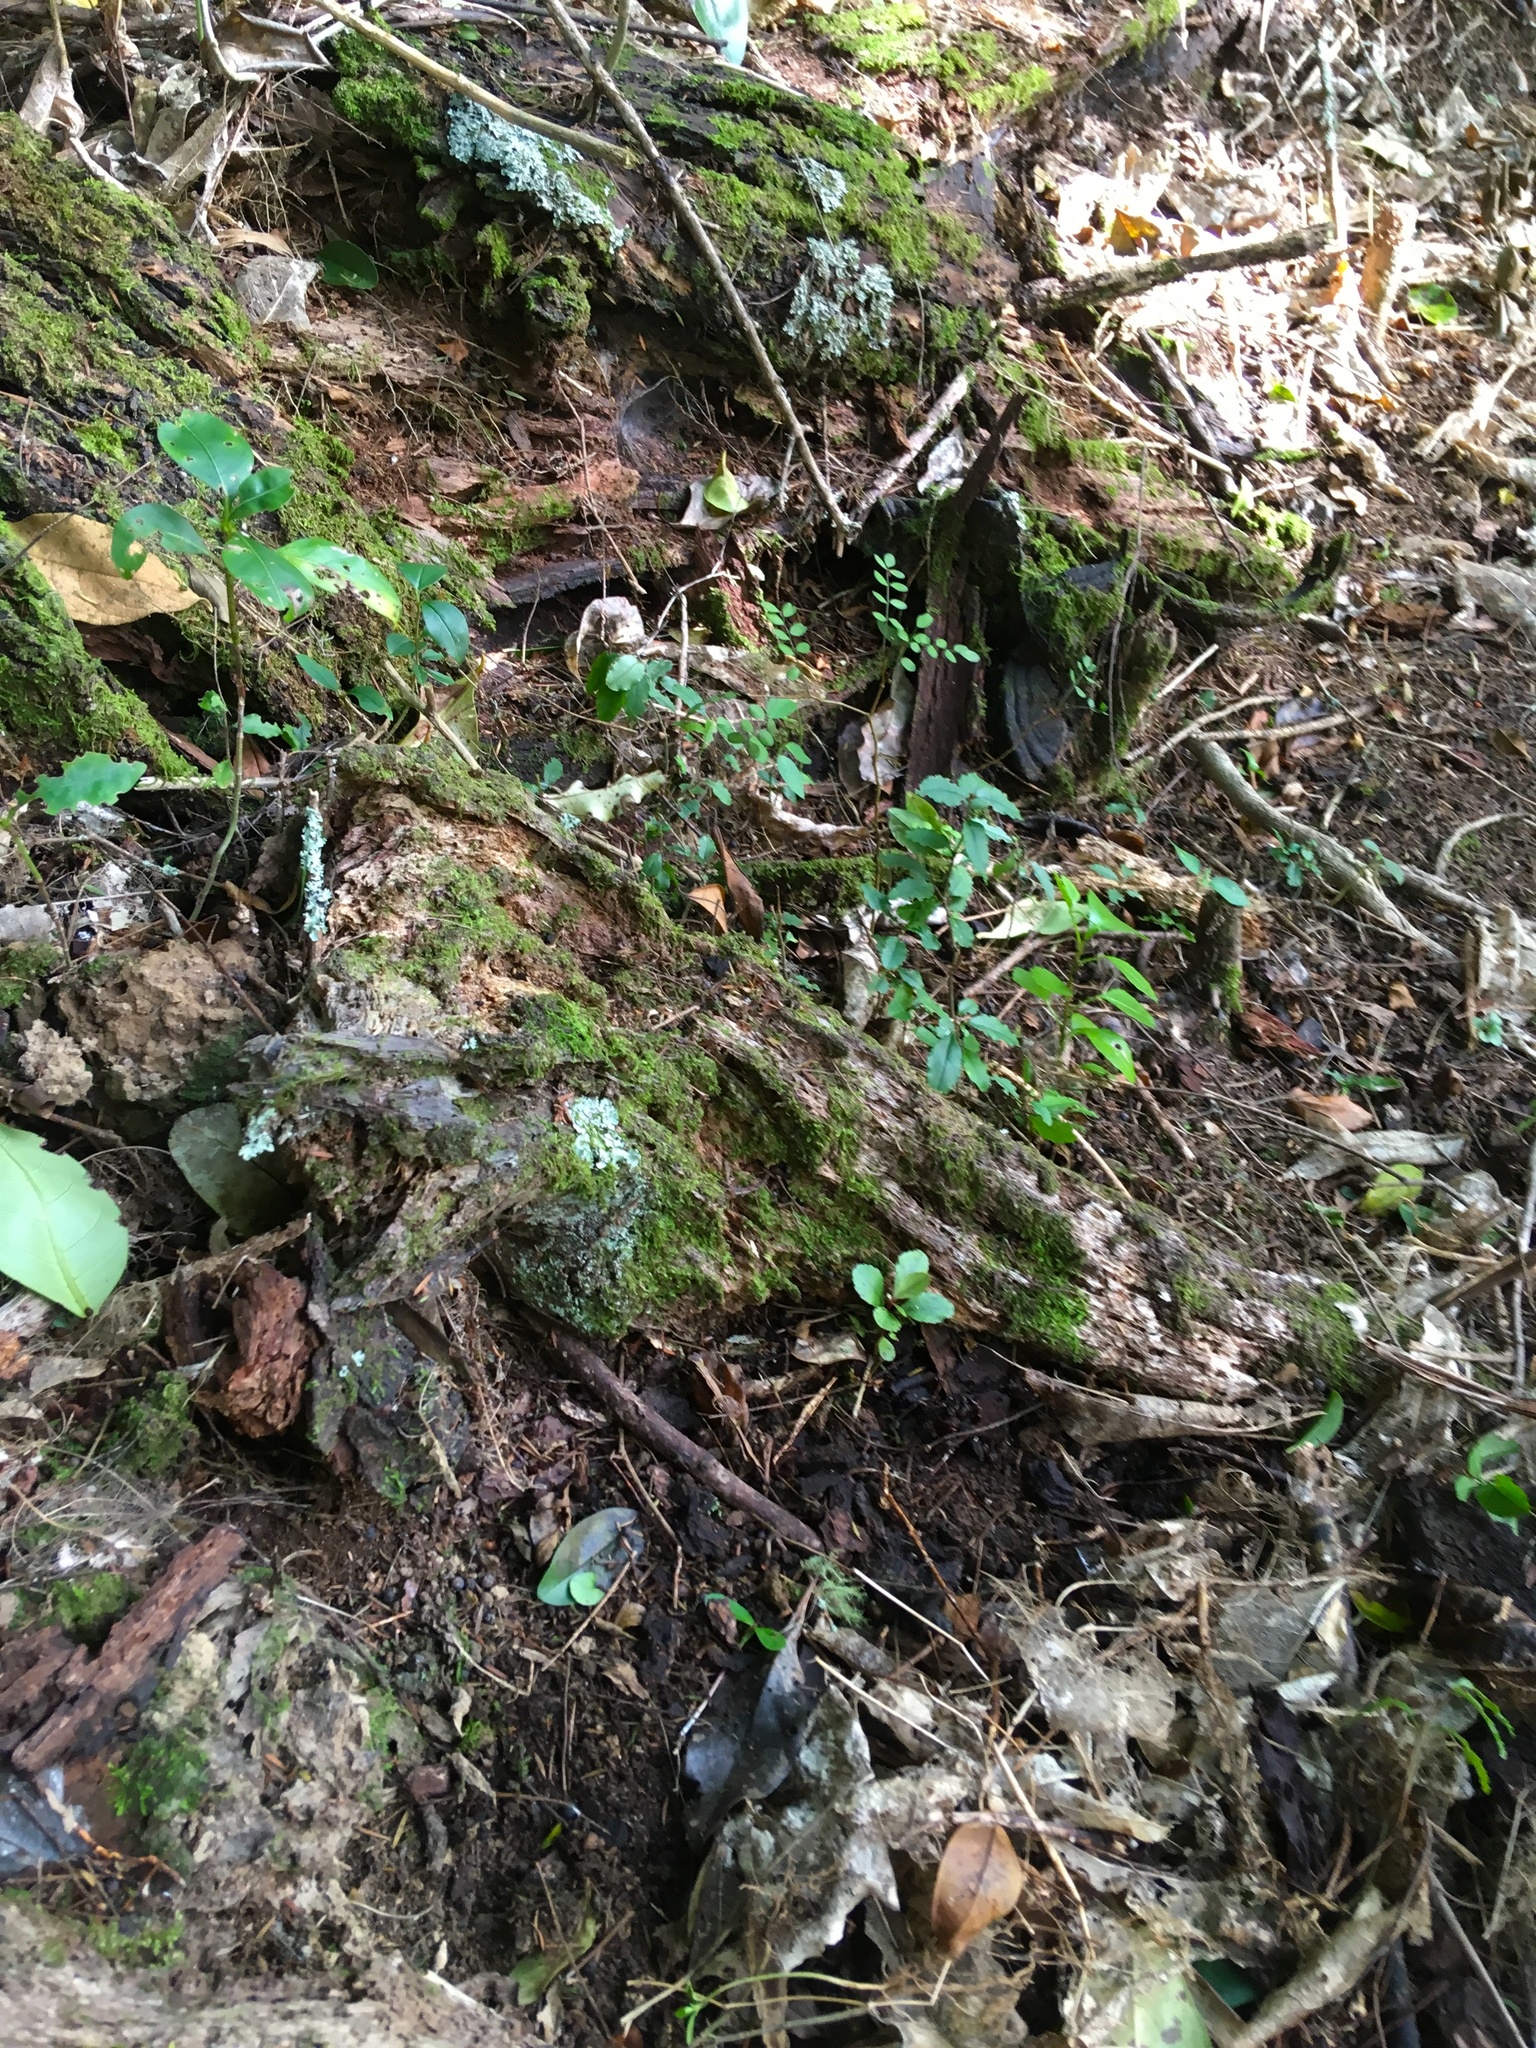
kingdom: Plantae
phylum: Tracheophyta
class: Magnoliopsida
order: Lamiales
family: Oleaceae
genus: Ligustrum
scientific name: Ligustrum sinense
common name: Chinese privet
